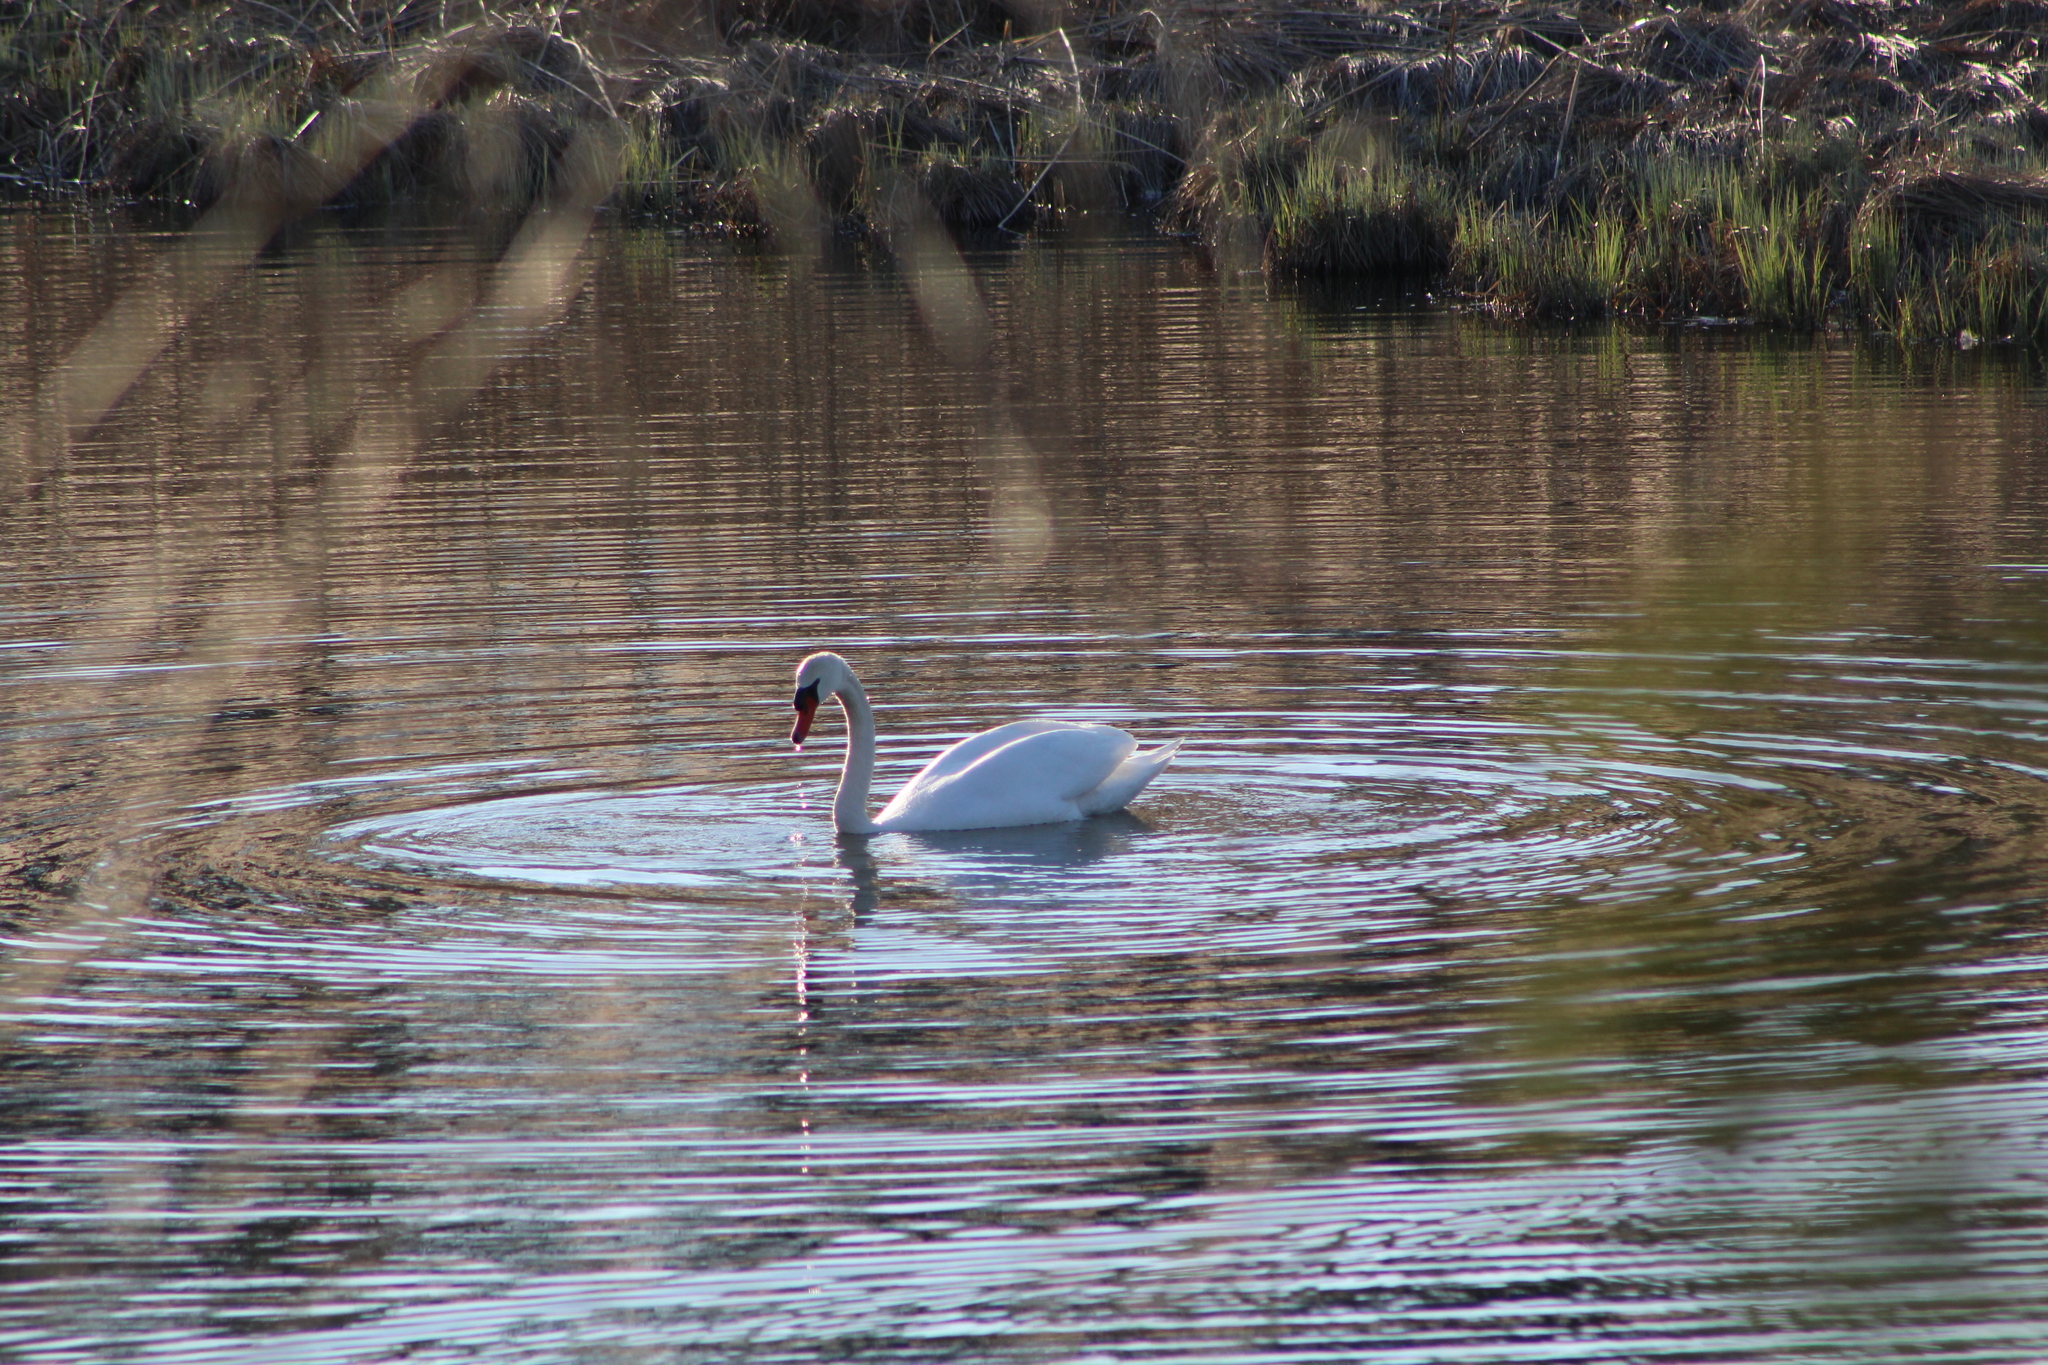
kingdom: Animalia
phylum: Chordata
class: Aves
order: Anseriformes
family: Anatidae
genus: Cygnus
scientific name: Cygnus olor
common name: Mute swan
